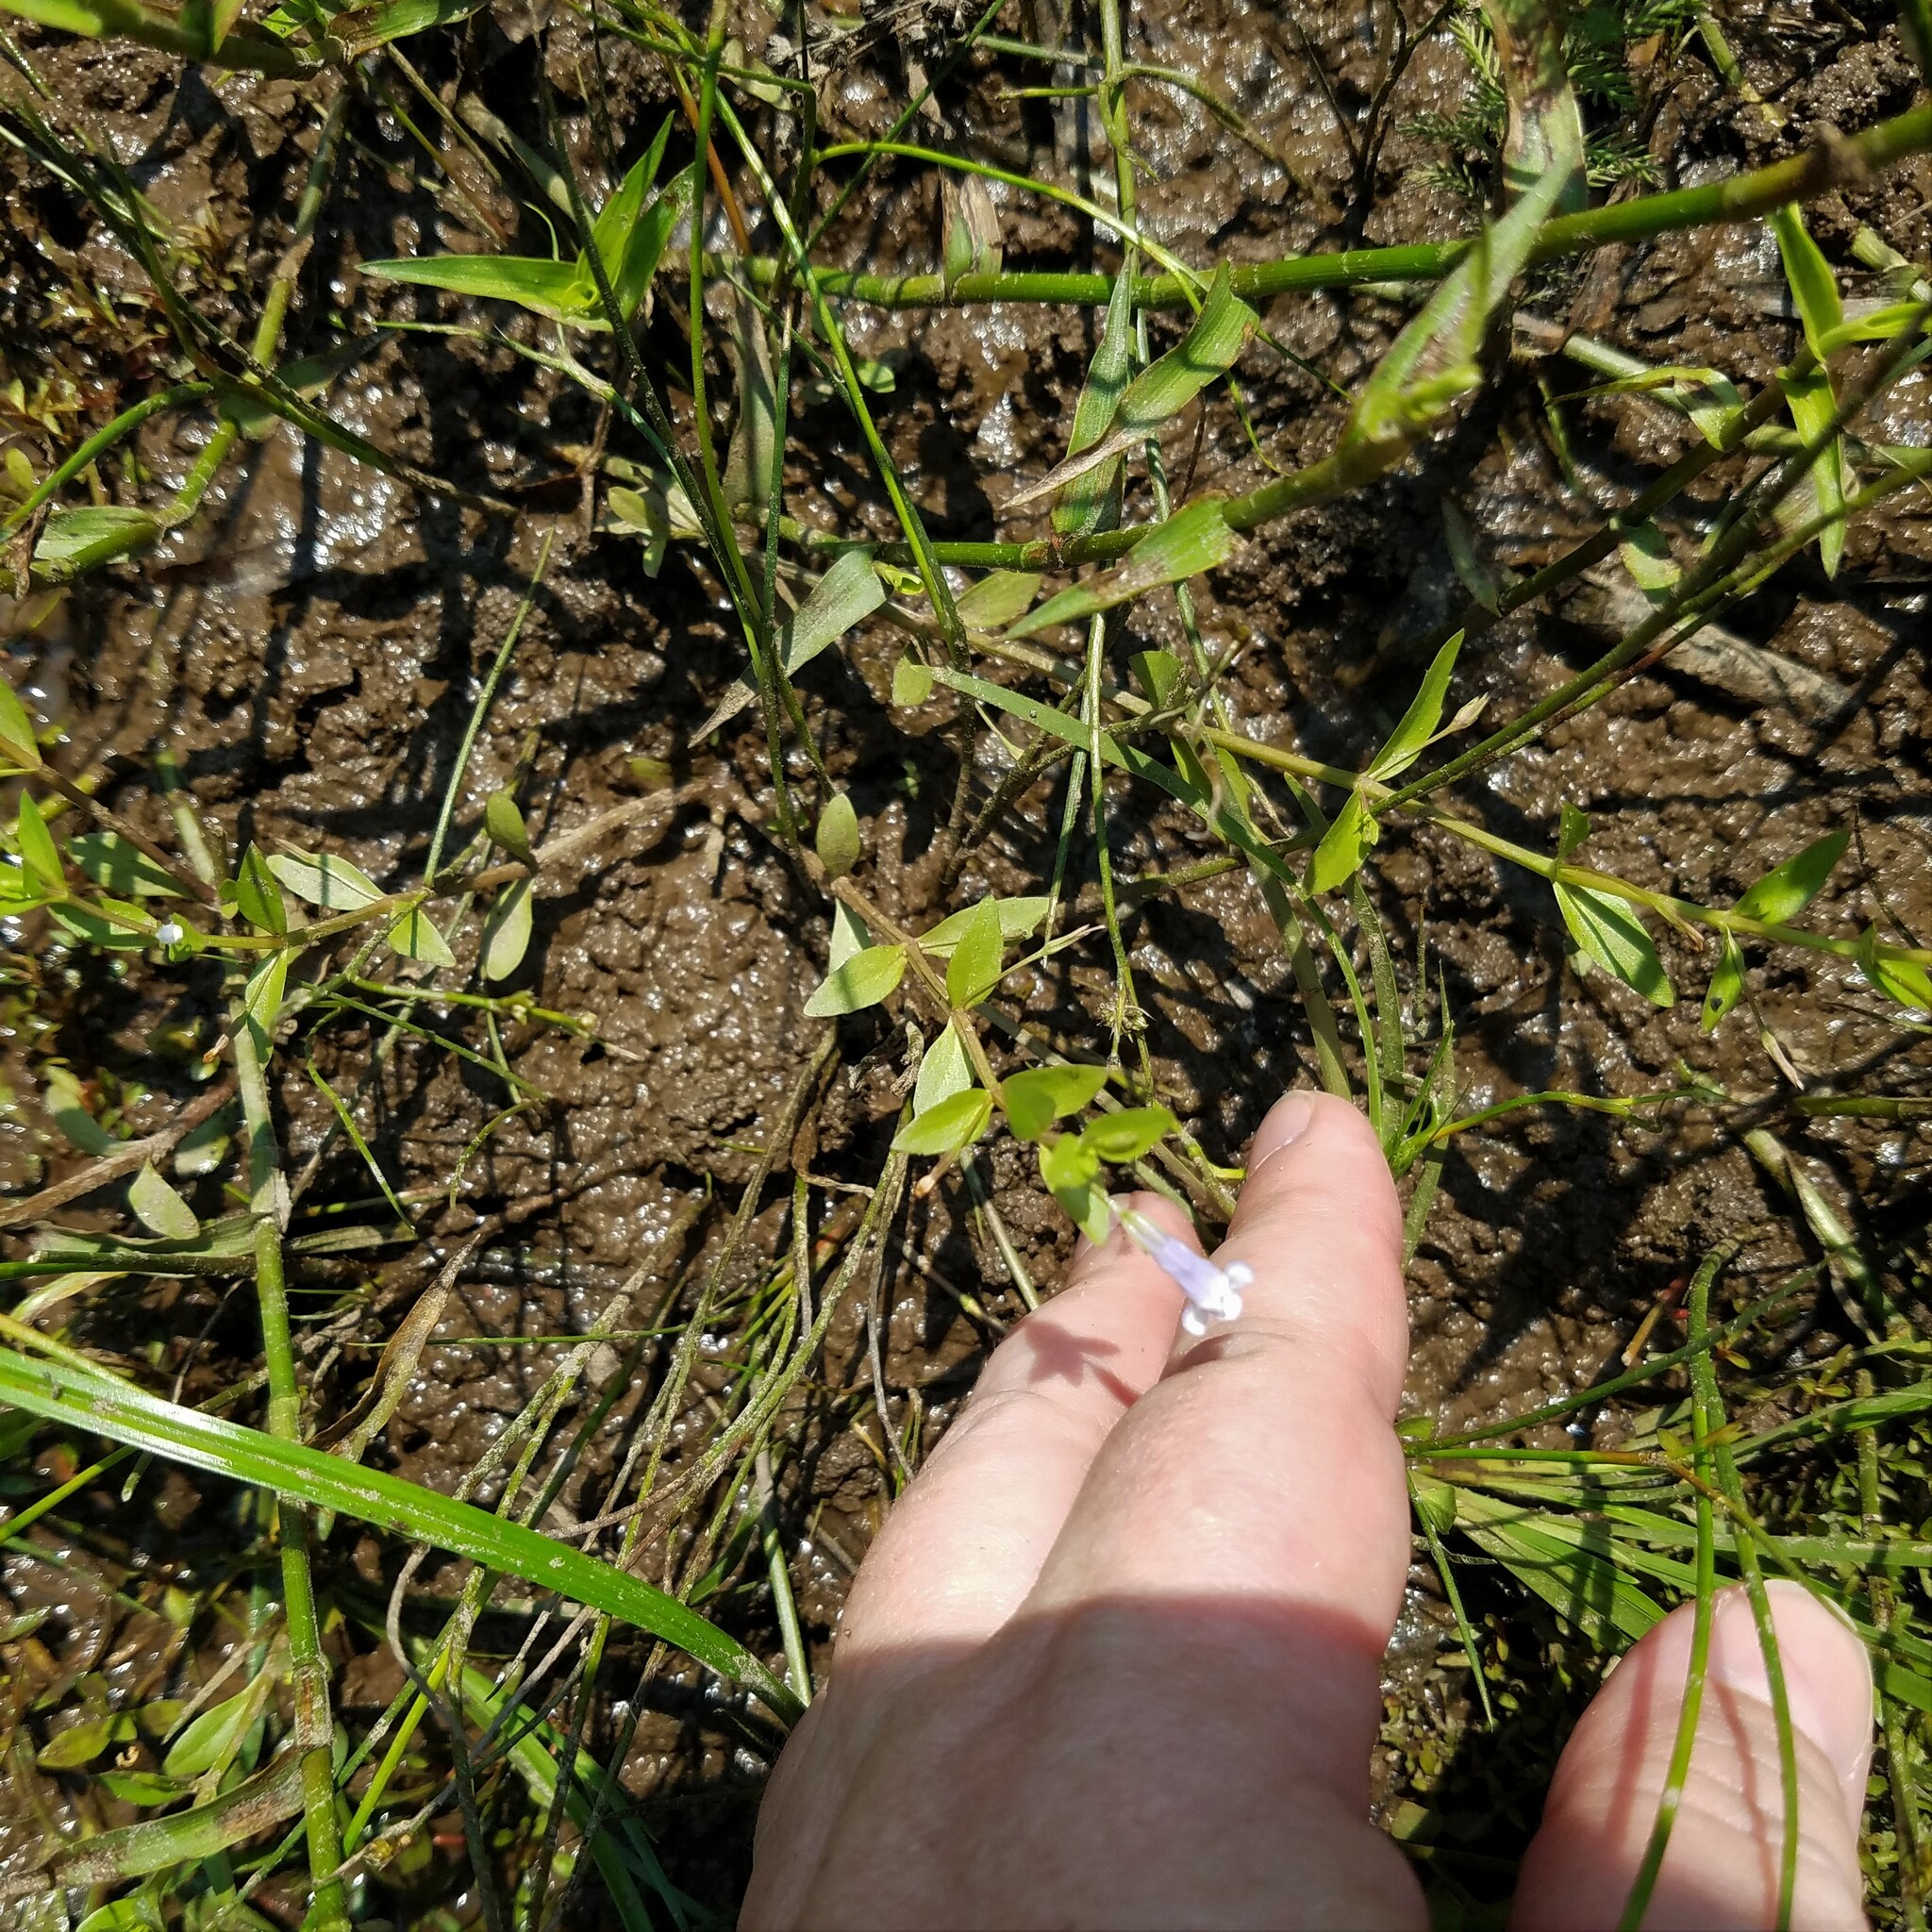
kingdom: Plantae
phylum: Tracheophyta
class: Magnoliopsida
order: Lamiales
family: Linderniaceae
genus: Lindernia
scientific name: Lindernia dubia
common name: Annual false pimpernel
